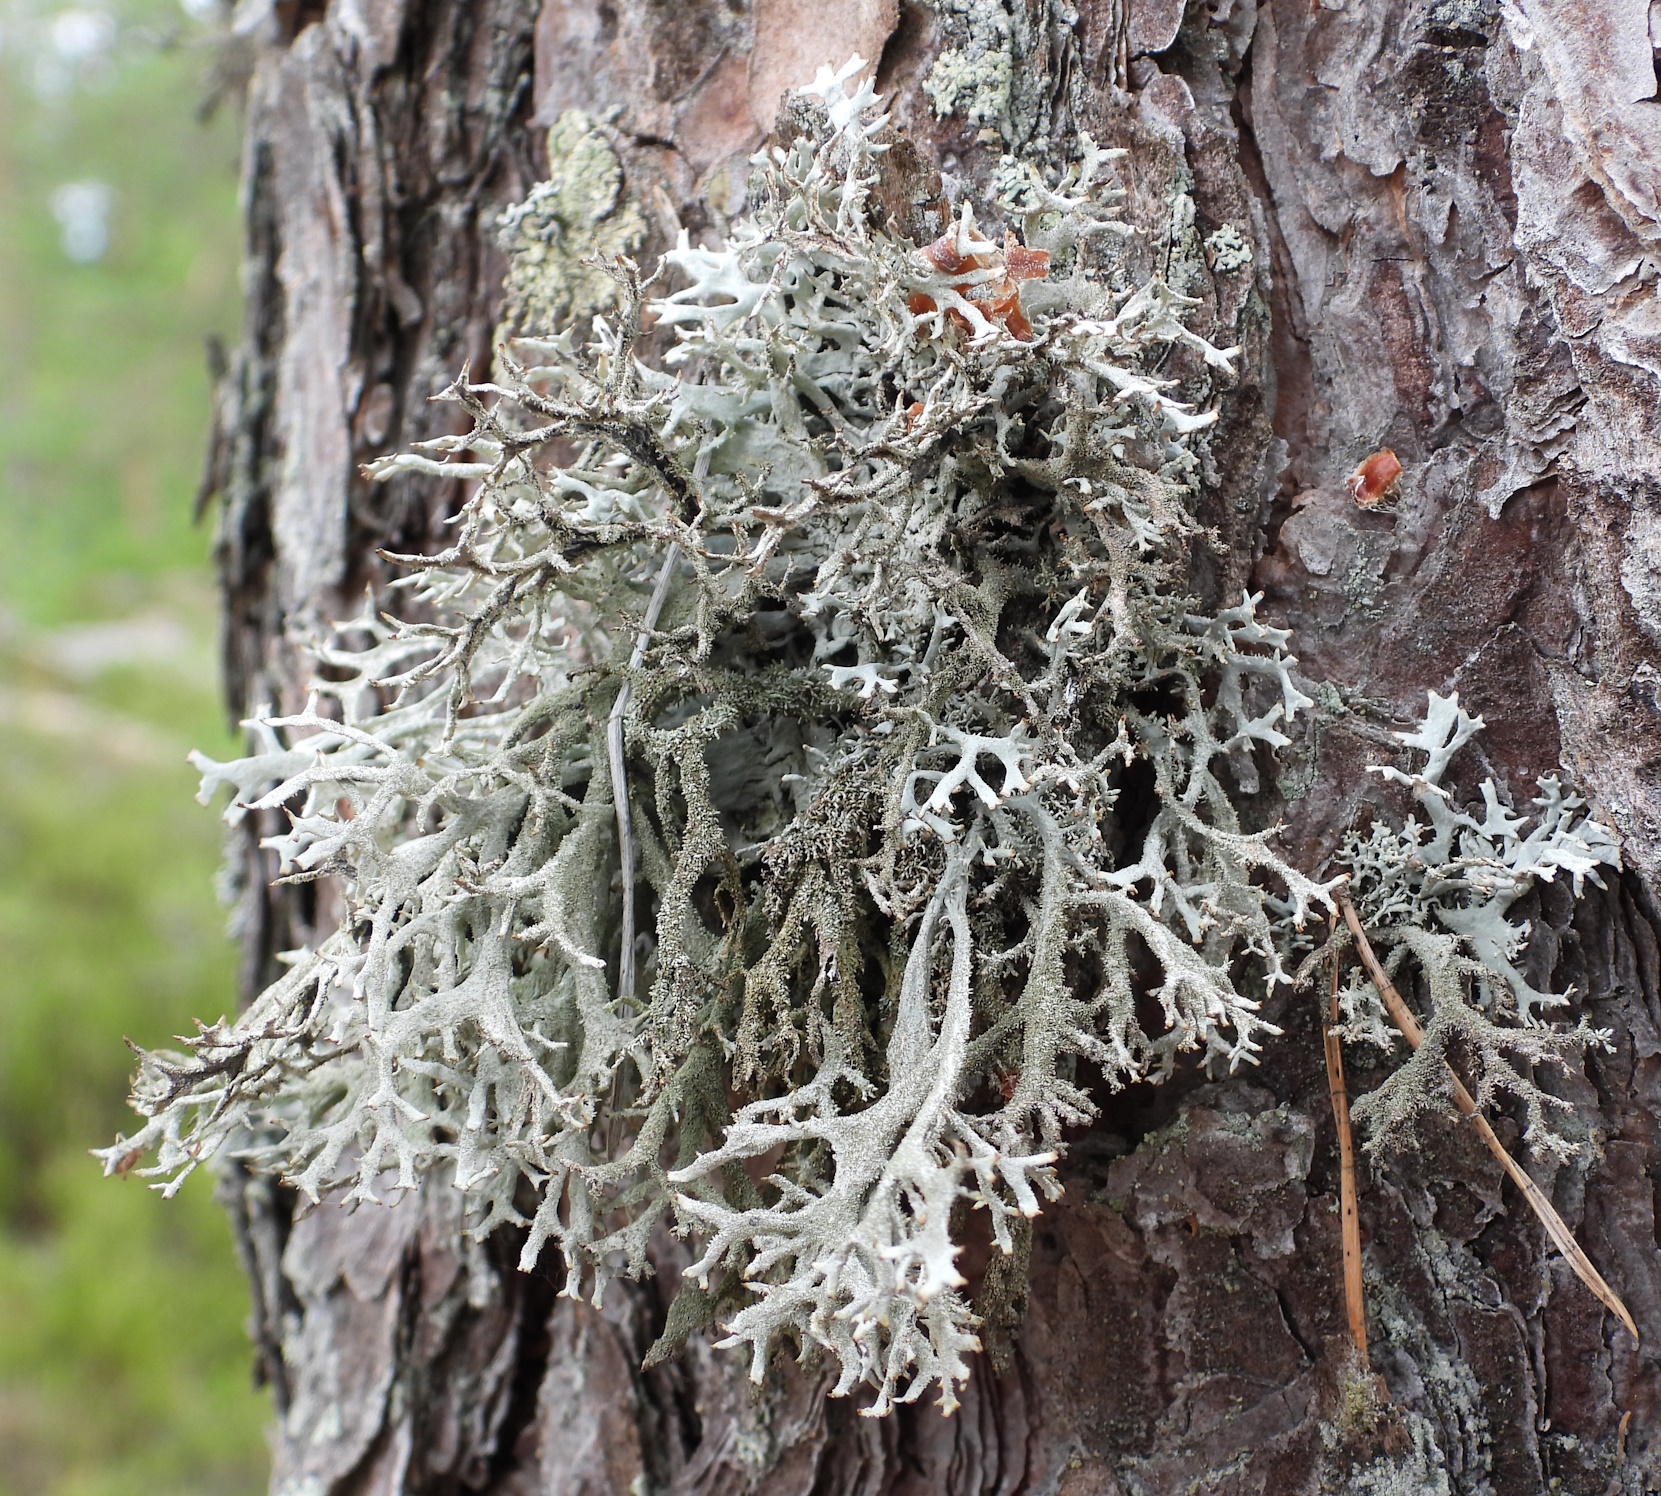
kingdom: Fungi
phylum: Ascomycota
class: Lecanoromycetes
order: Lecanorales
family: Parmeliaceae
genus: Pseudevernia
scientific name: Pseudevernia furfuracea
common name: Tree moss
